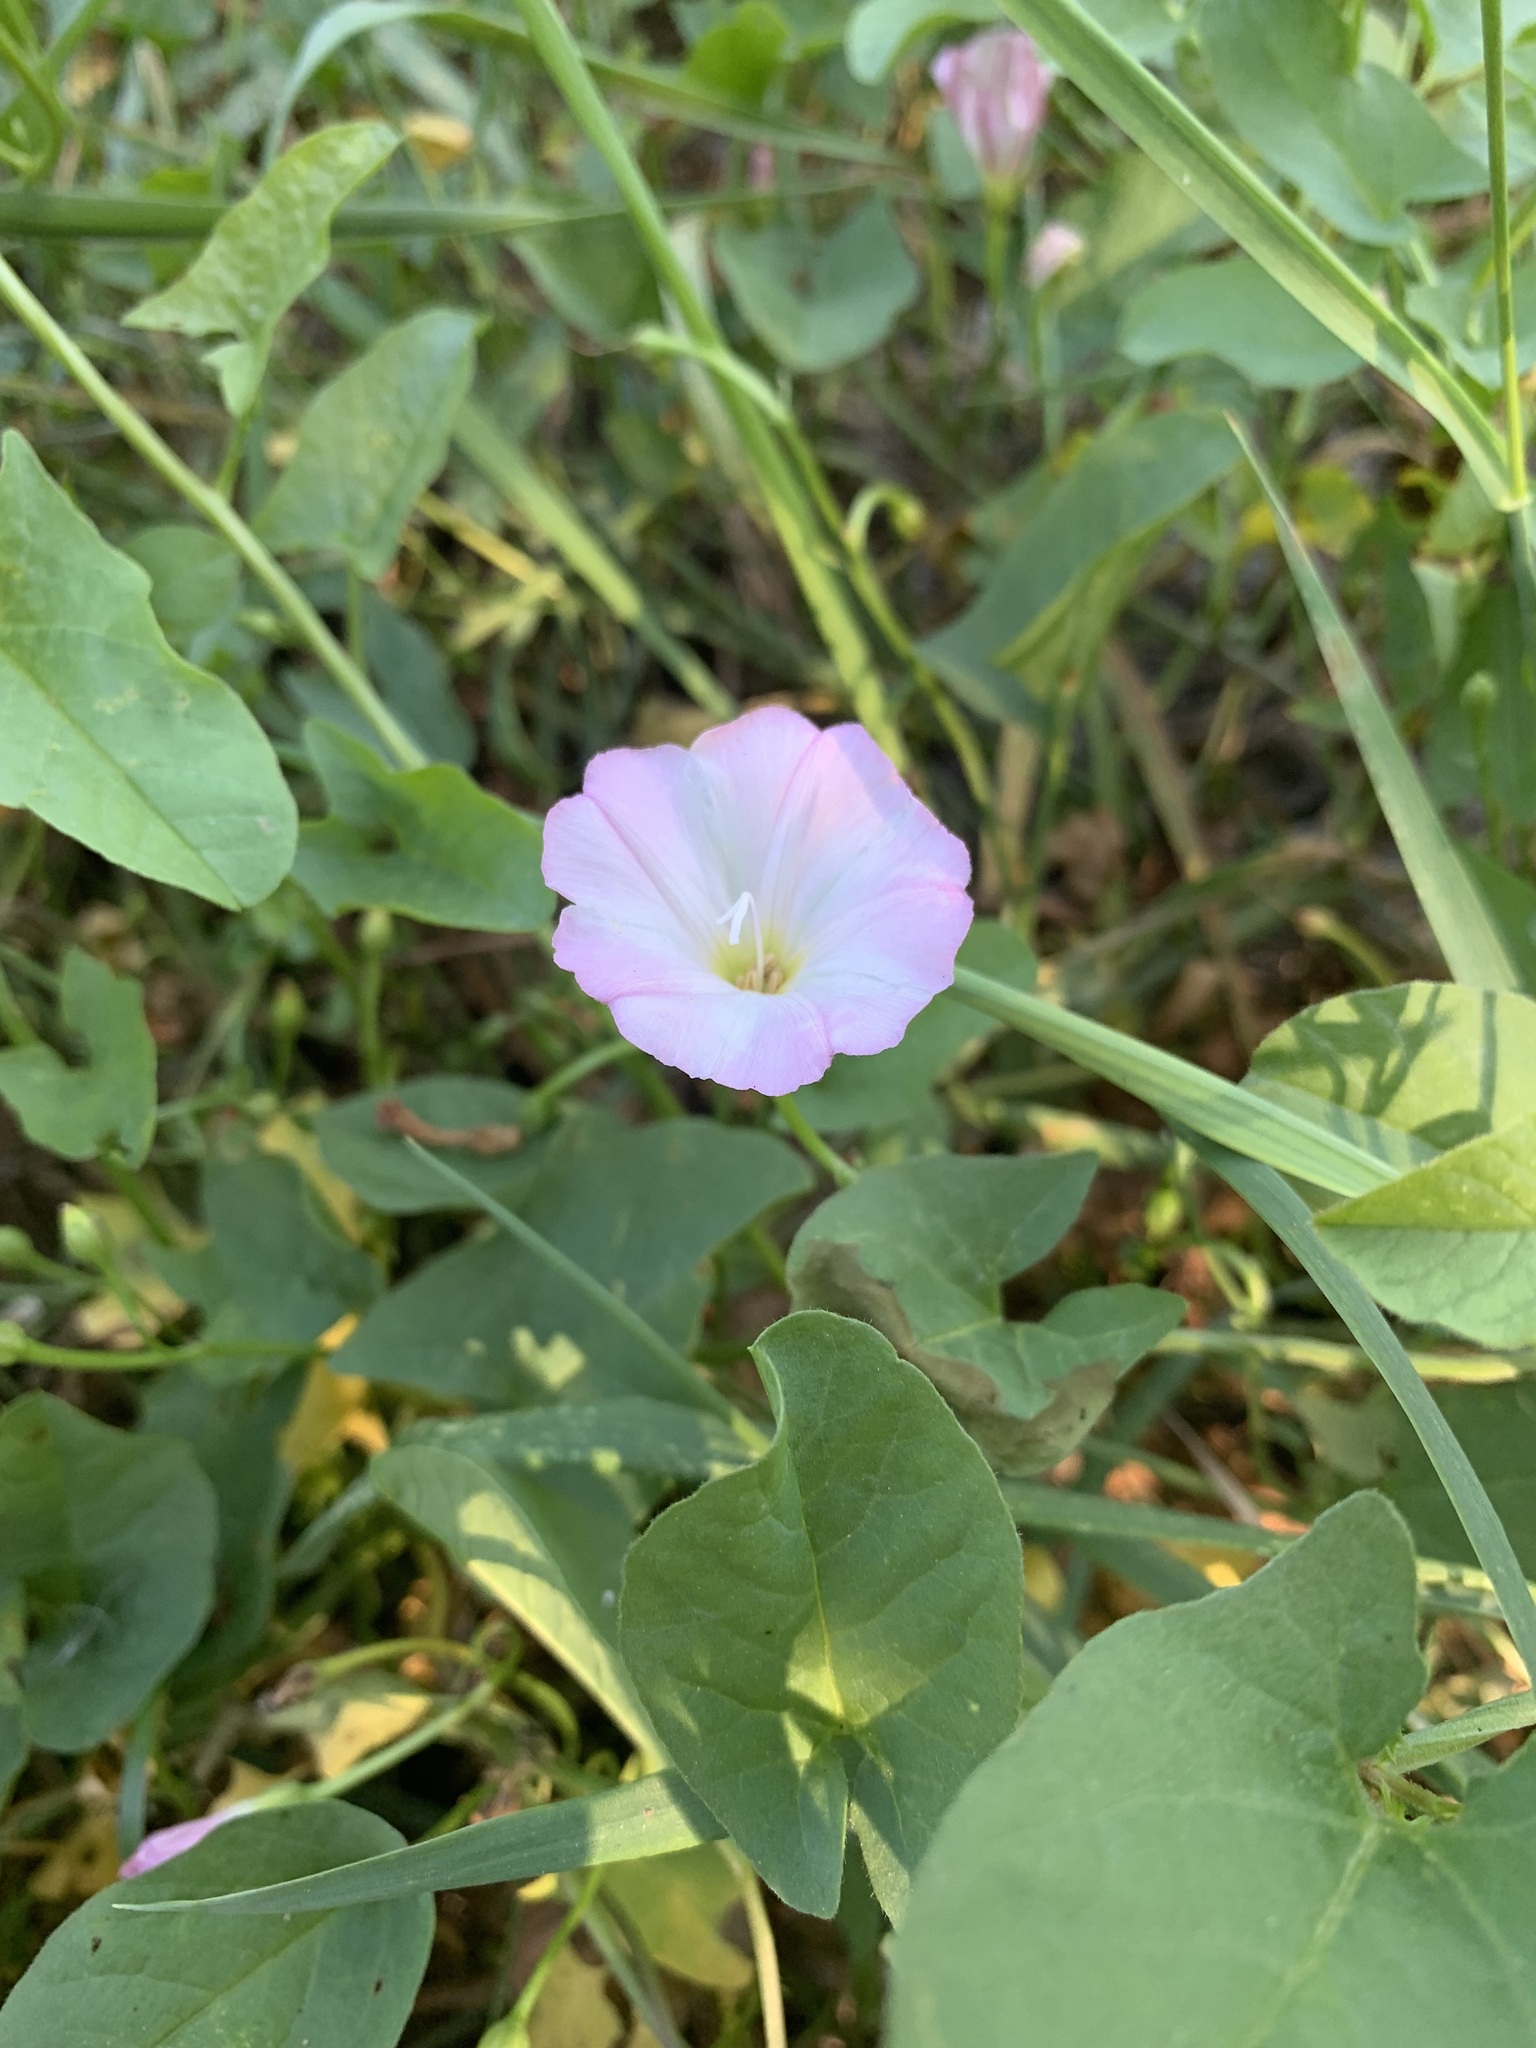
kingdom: Plantae
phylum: Tracheophyta
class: Magnoliopsida
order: Solanales
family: Convolvulaceae
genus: Convolvulus
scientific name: Convolvulus arvensis
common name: Field bindweed
